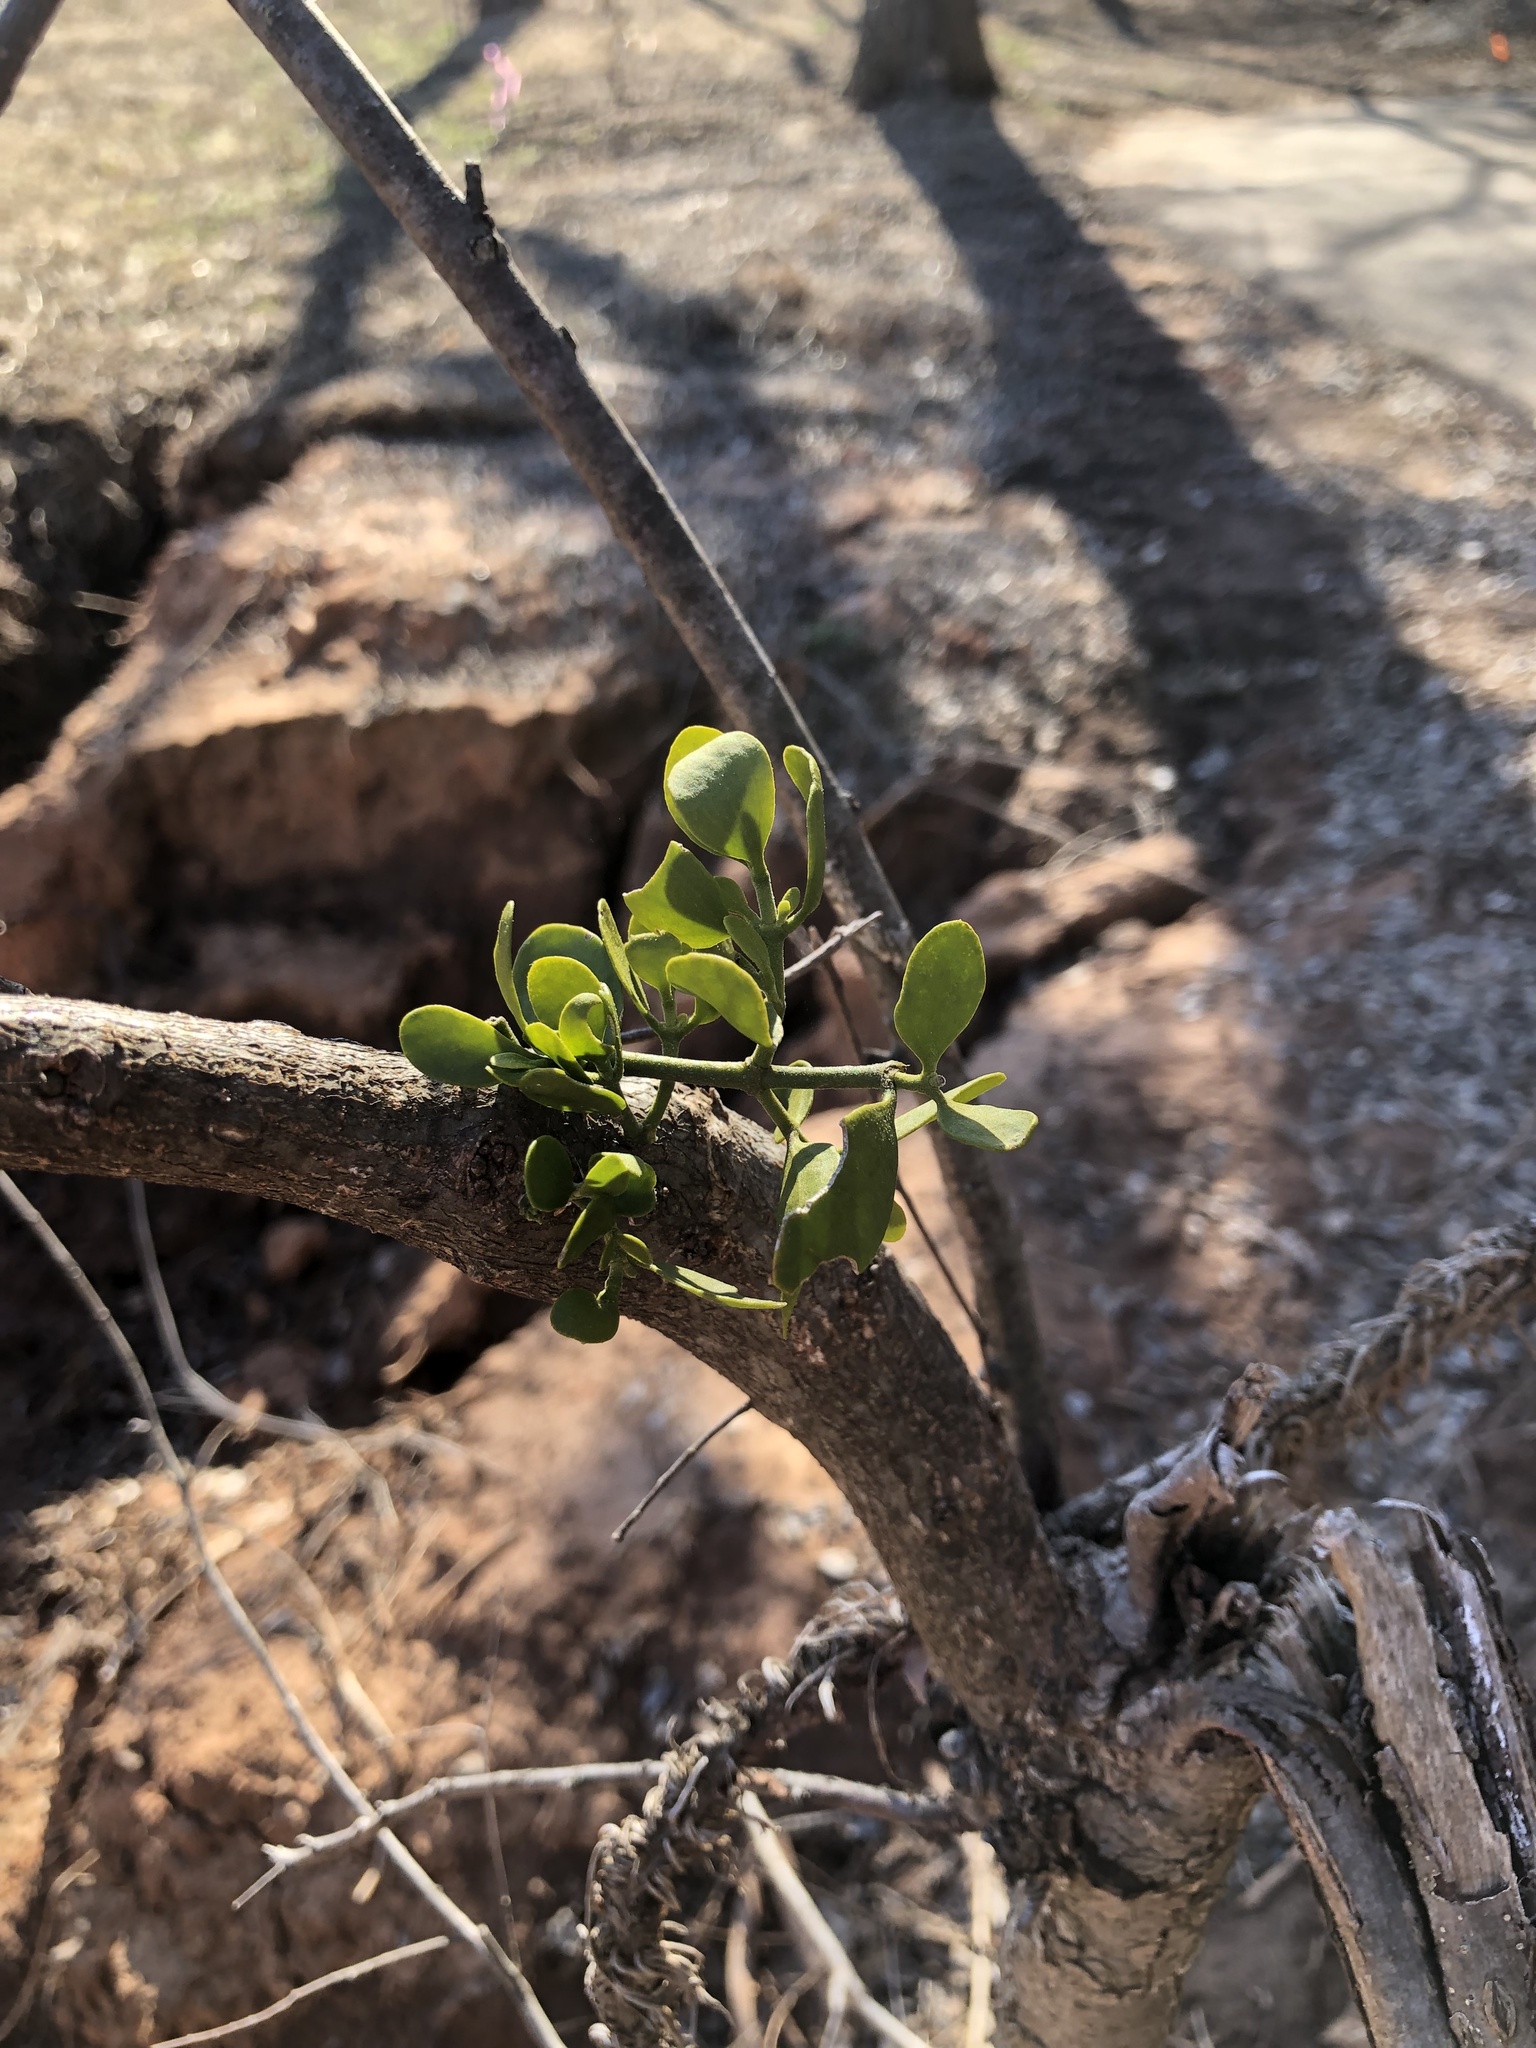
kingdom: Plantae
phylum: Tracheophyta
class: Magnoliopsida
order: Santalales
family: Viscaceae
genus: Phoradendron
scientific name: Phoradendron leucarpum
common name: Pacific mistletoe
